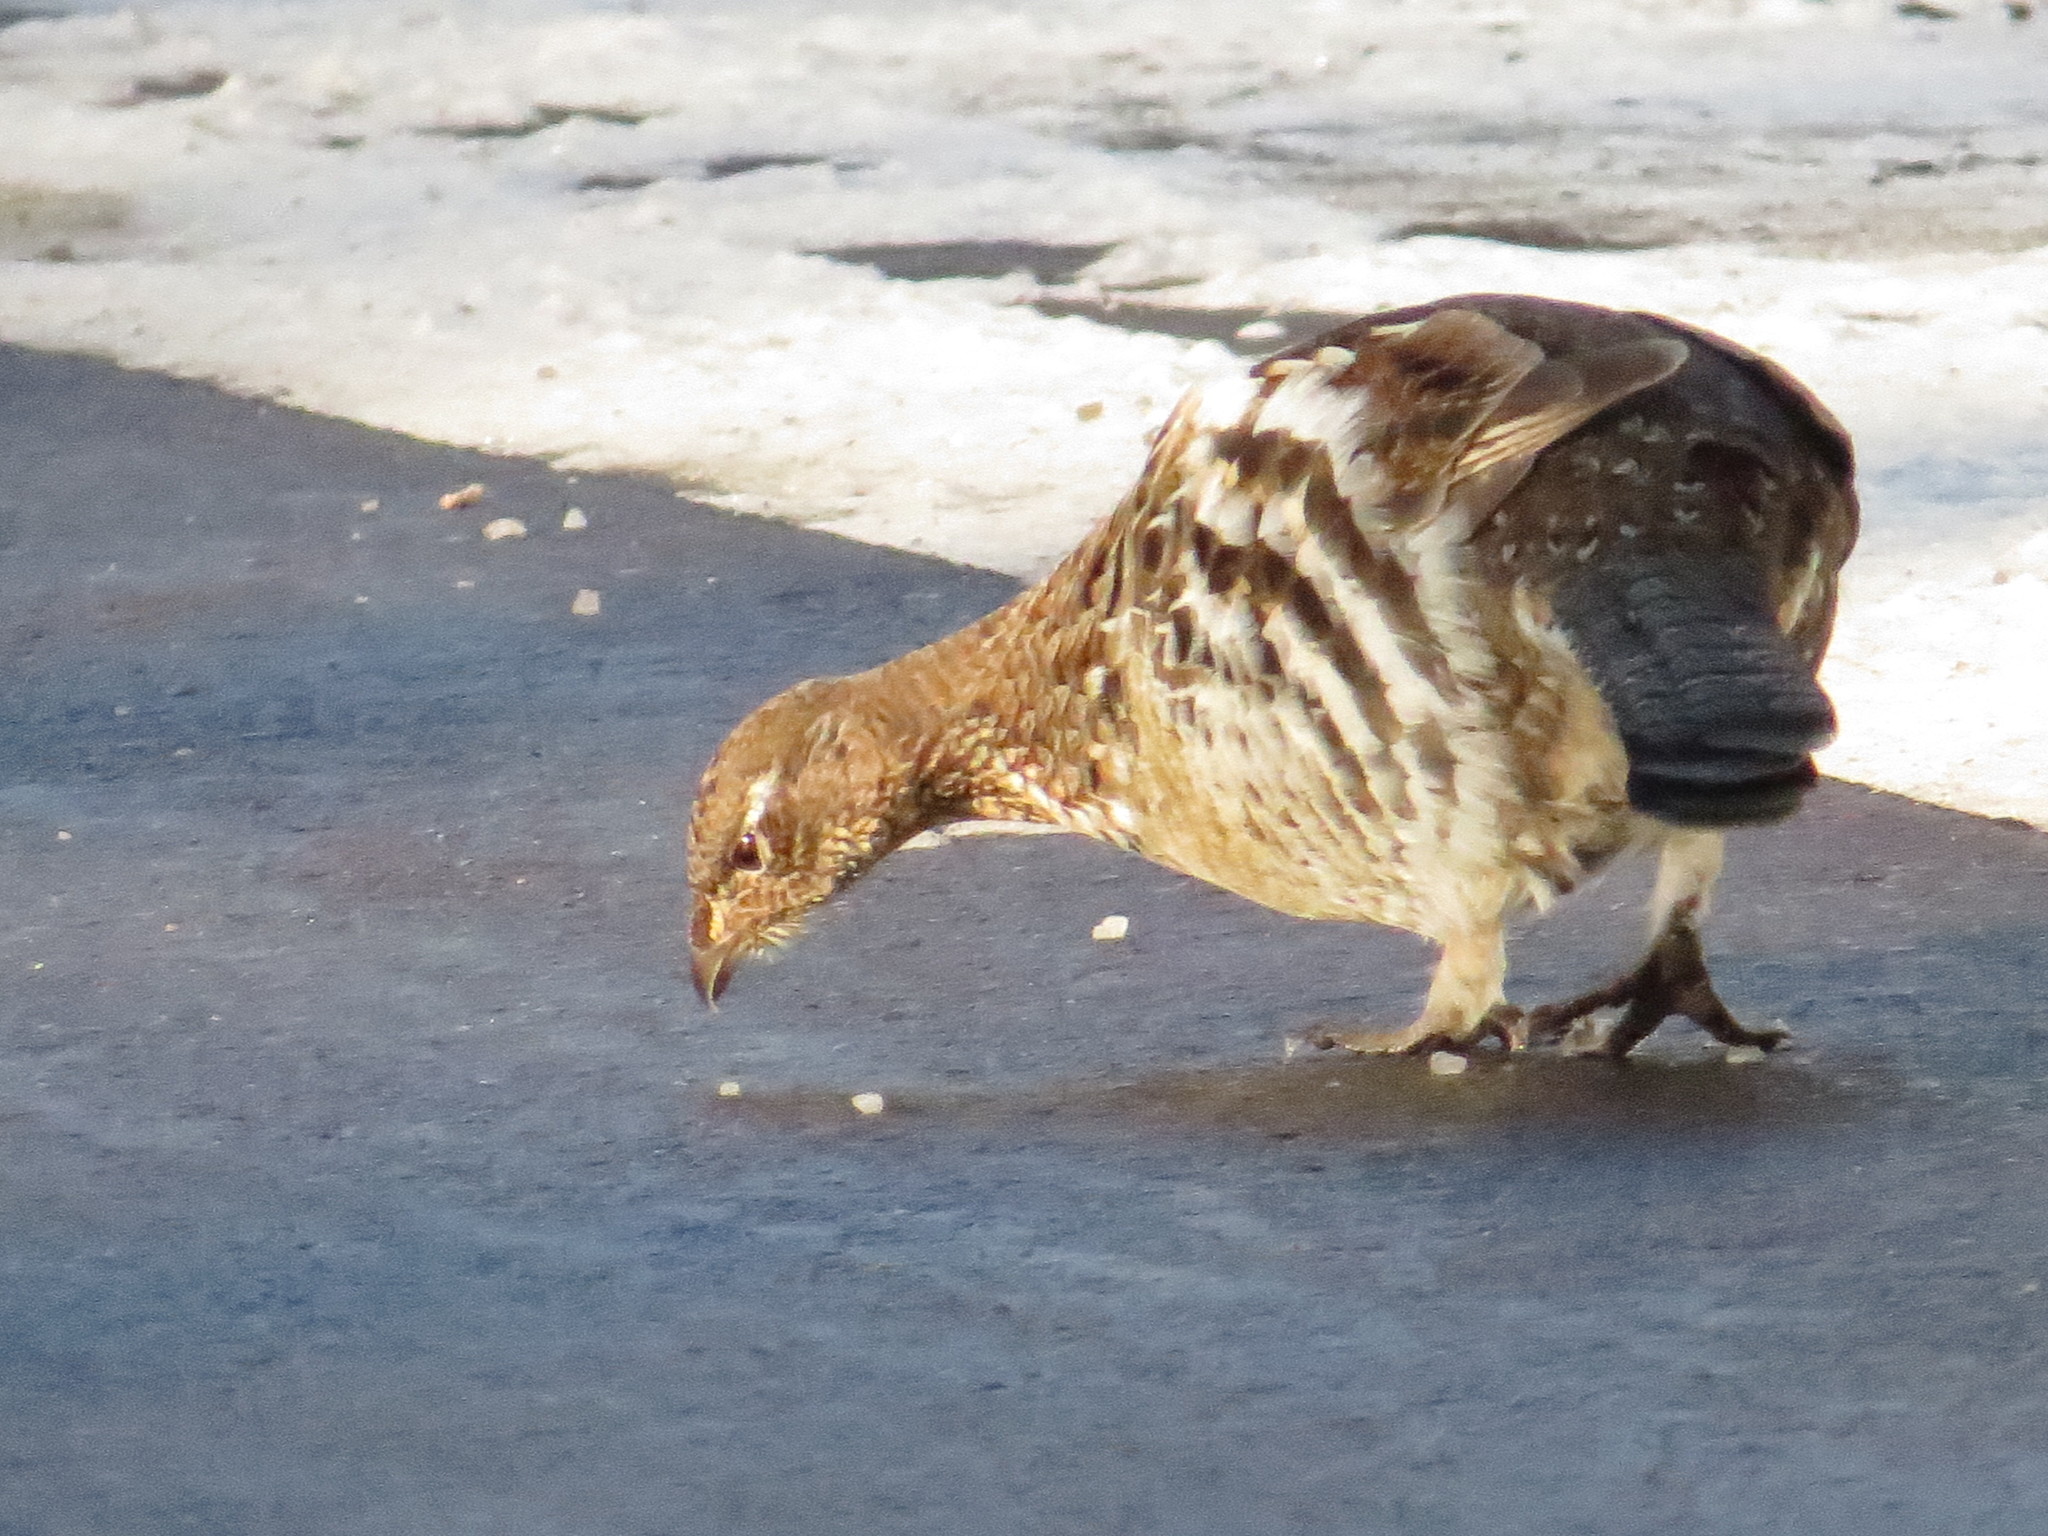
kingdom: Animalia
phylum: Chordata
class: Aves
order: Galliformes
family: Phasianidae
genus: Canachites
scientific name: Canachites canadensis
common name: Spruce grouse
